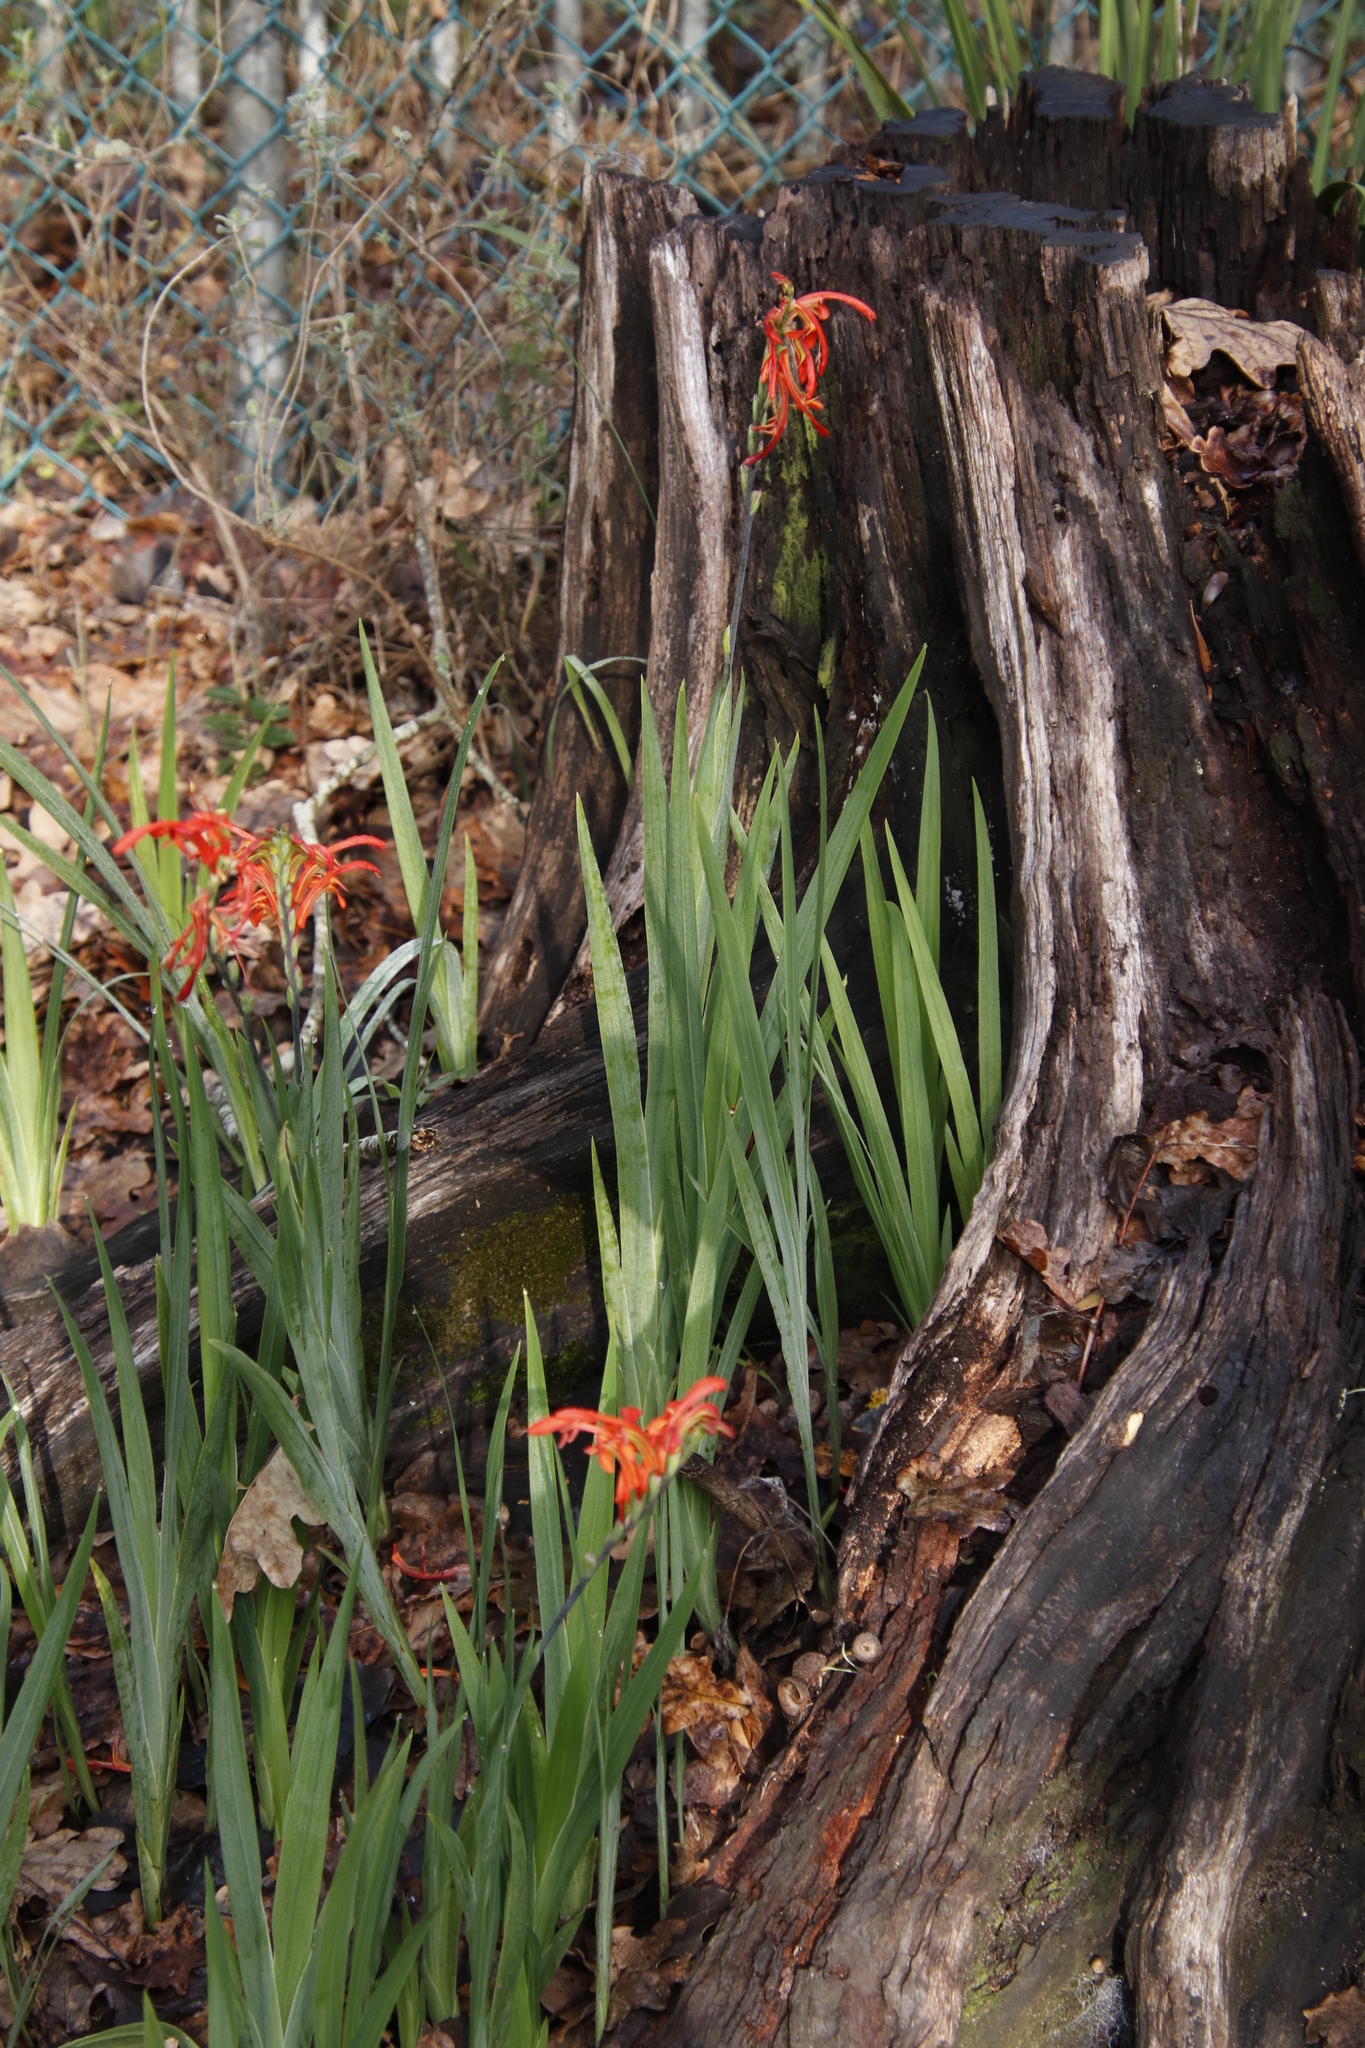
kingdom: Plantae
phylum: Tracheophyta
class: Liliopsida
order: Asparagales
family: Iridaceae
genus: Chasmanthe
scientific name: Chasmanthe aethiopica
